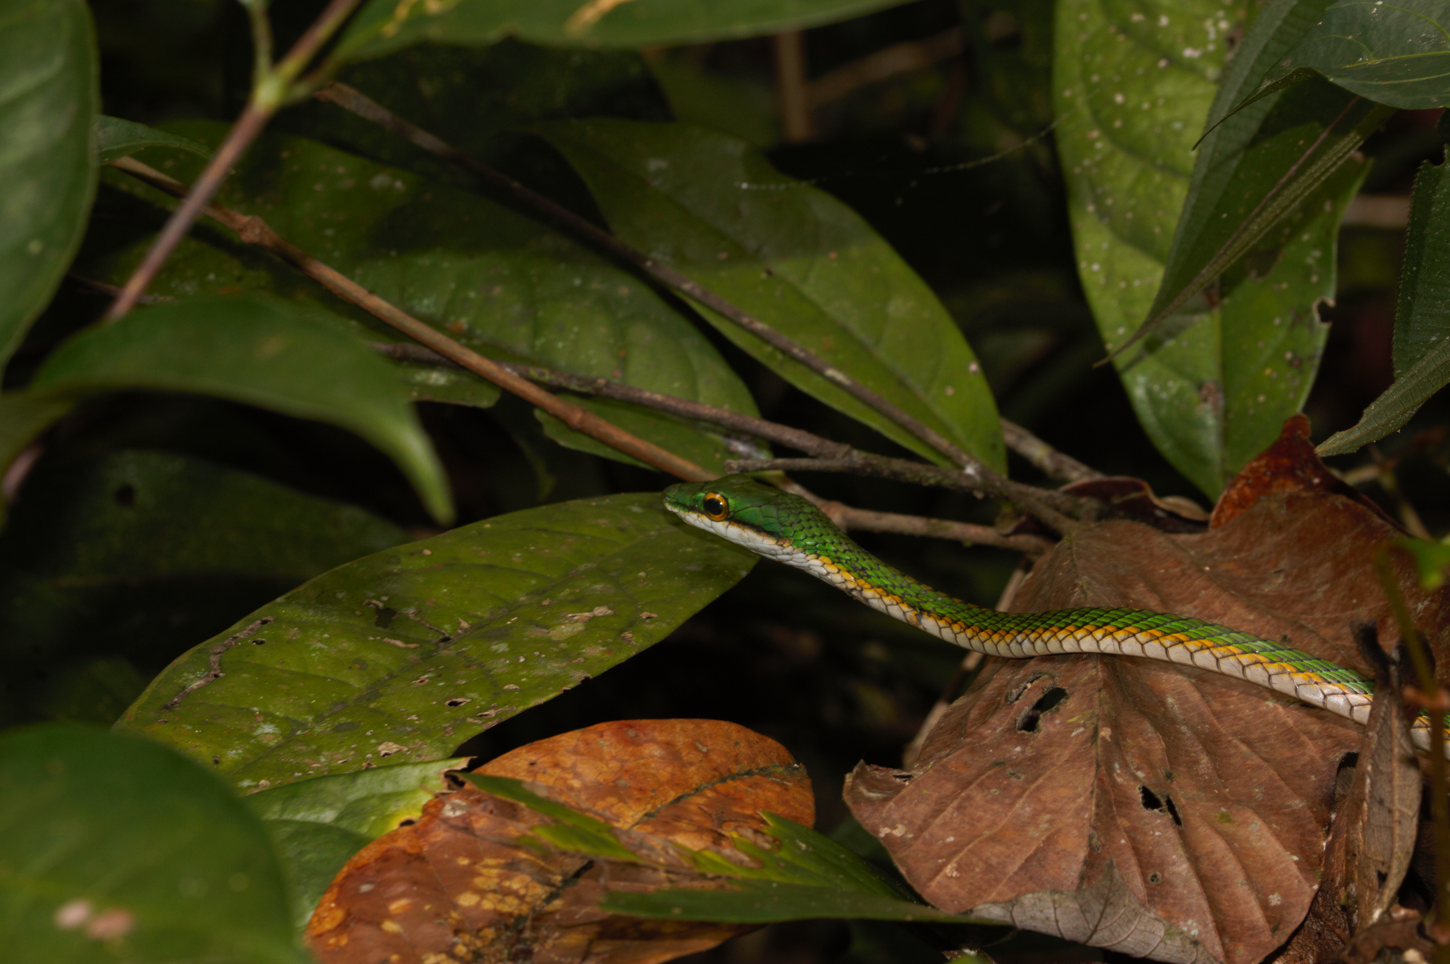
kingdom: Animalia
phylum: Chordata
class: Squamata
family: Colubridae
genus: Leptophis
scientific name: Leptophis ahaetulla
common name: Parrot snake
